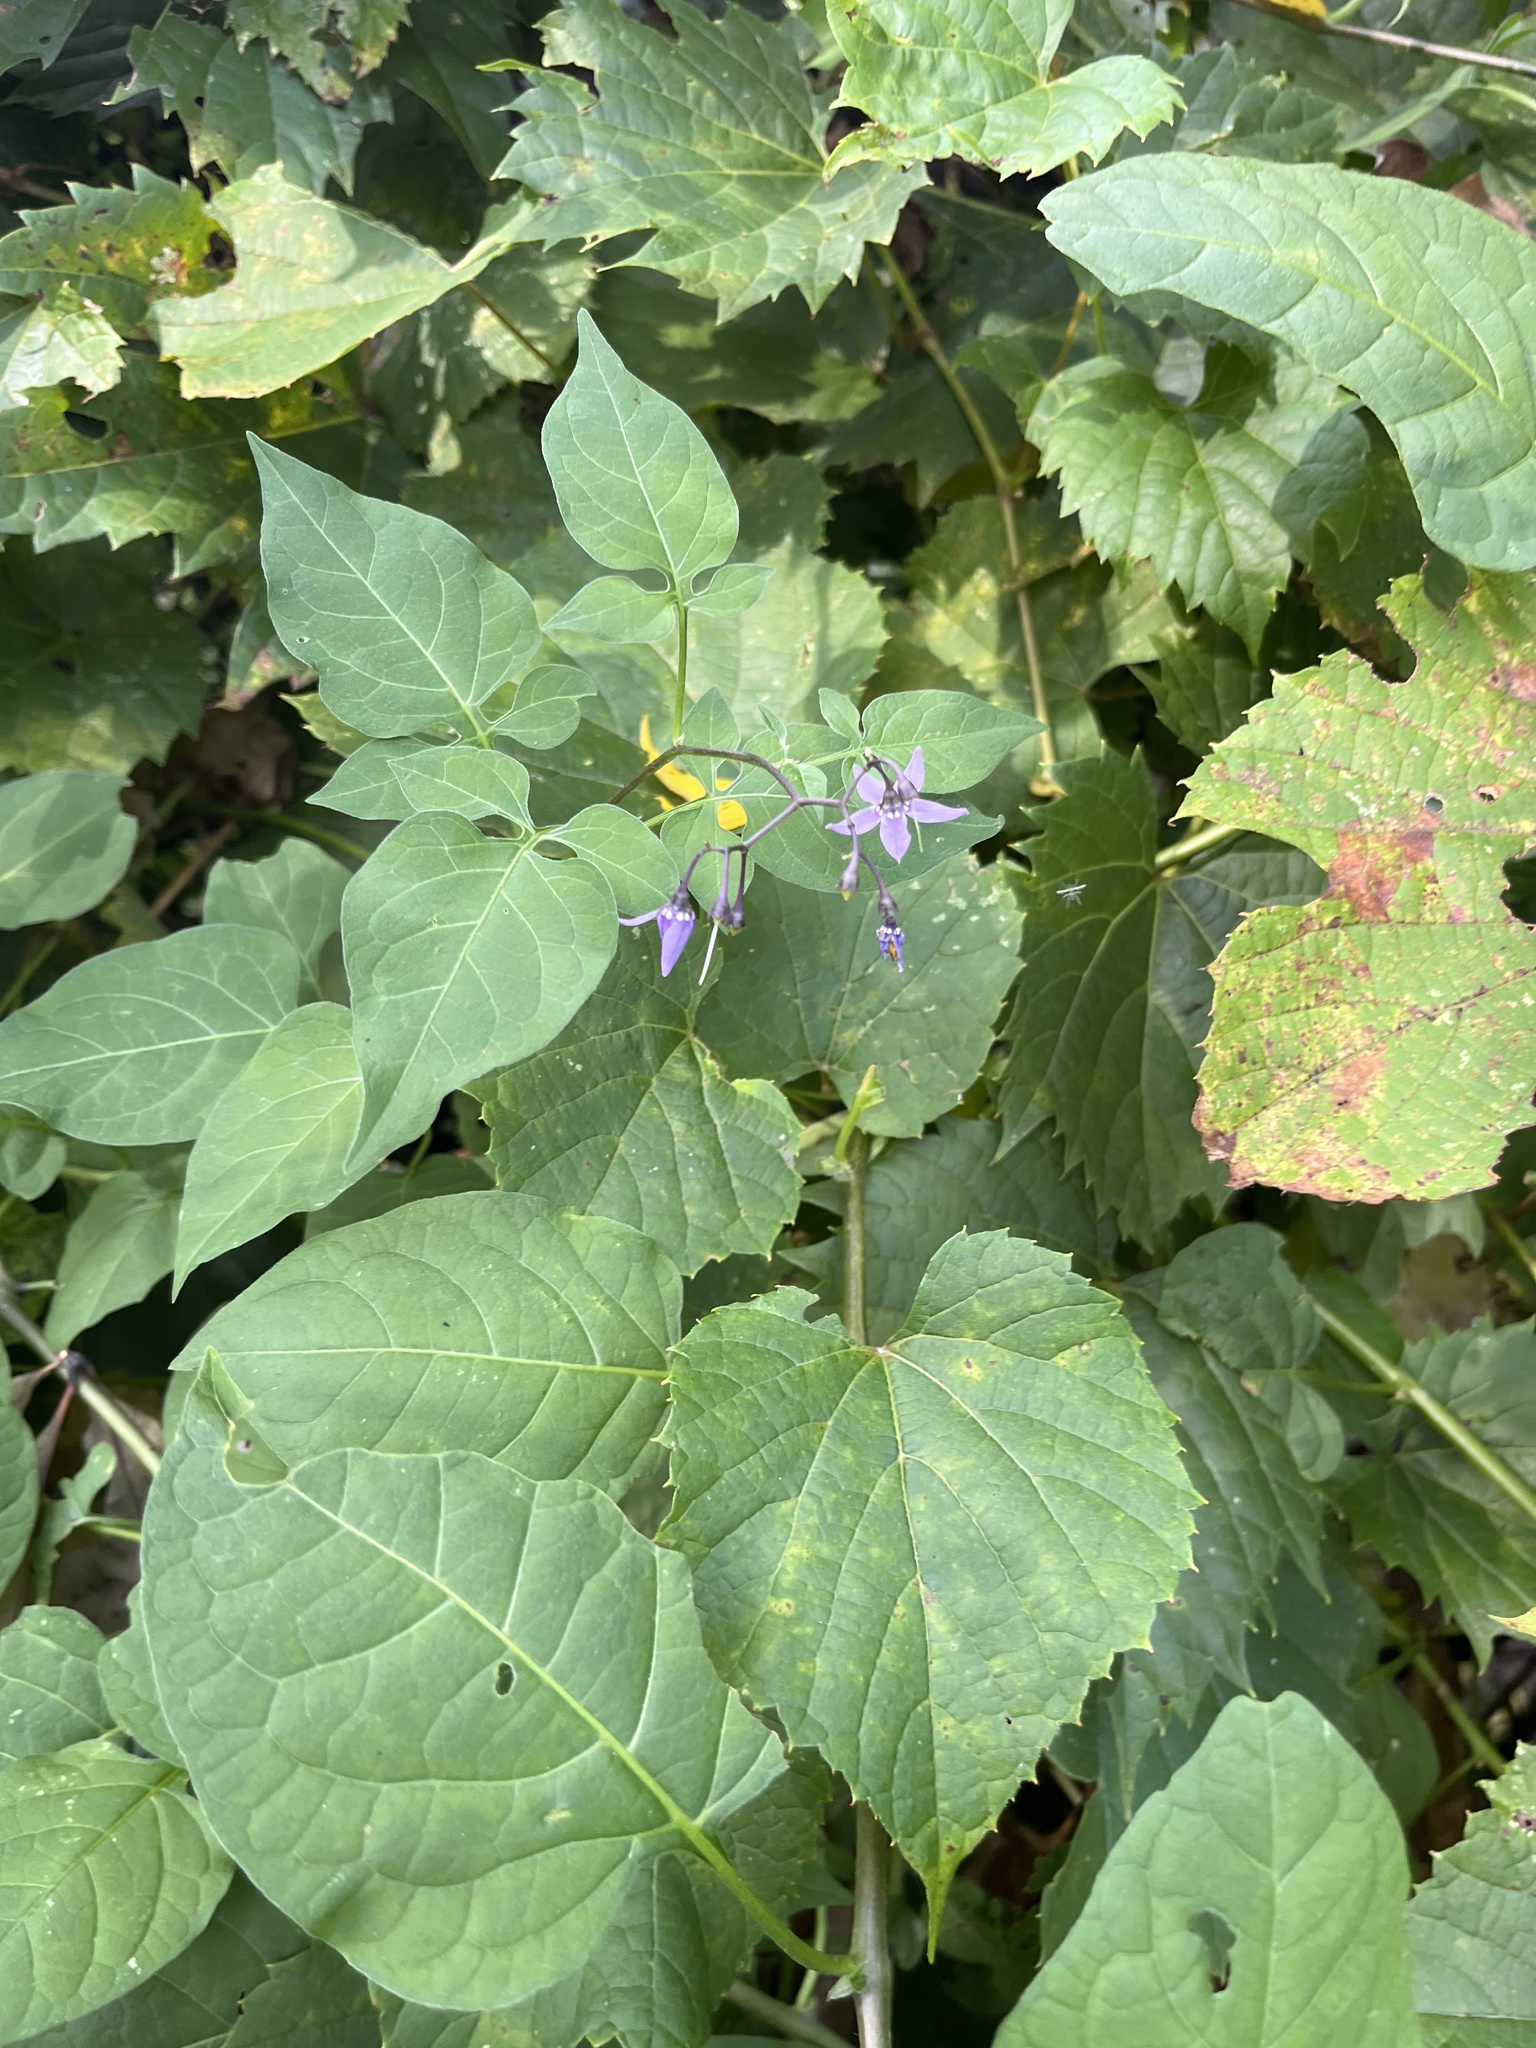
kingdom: Plantae
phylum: Tracheophyta
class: Magnoliopsida
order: Solanales
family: Solanaceae
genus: Solanum
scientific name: Solanum dulcamara
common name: Climbing nightshade
